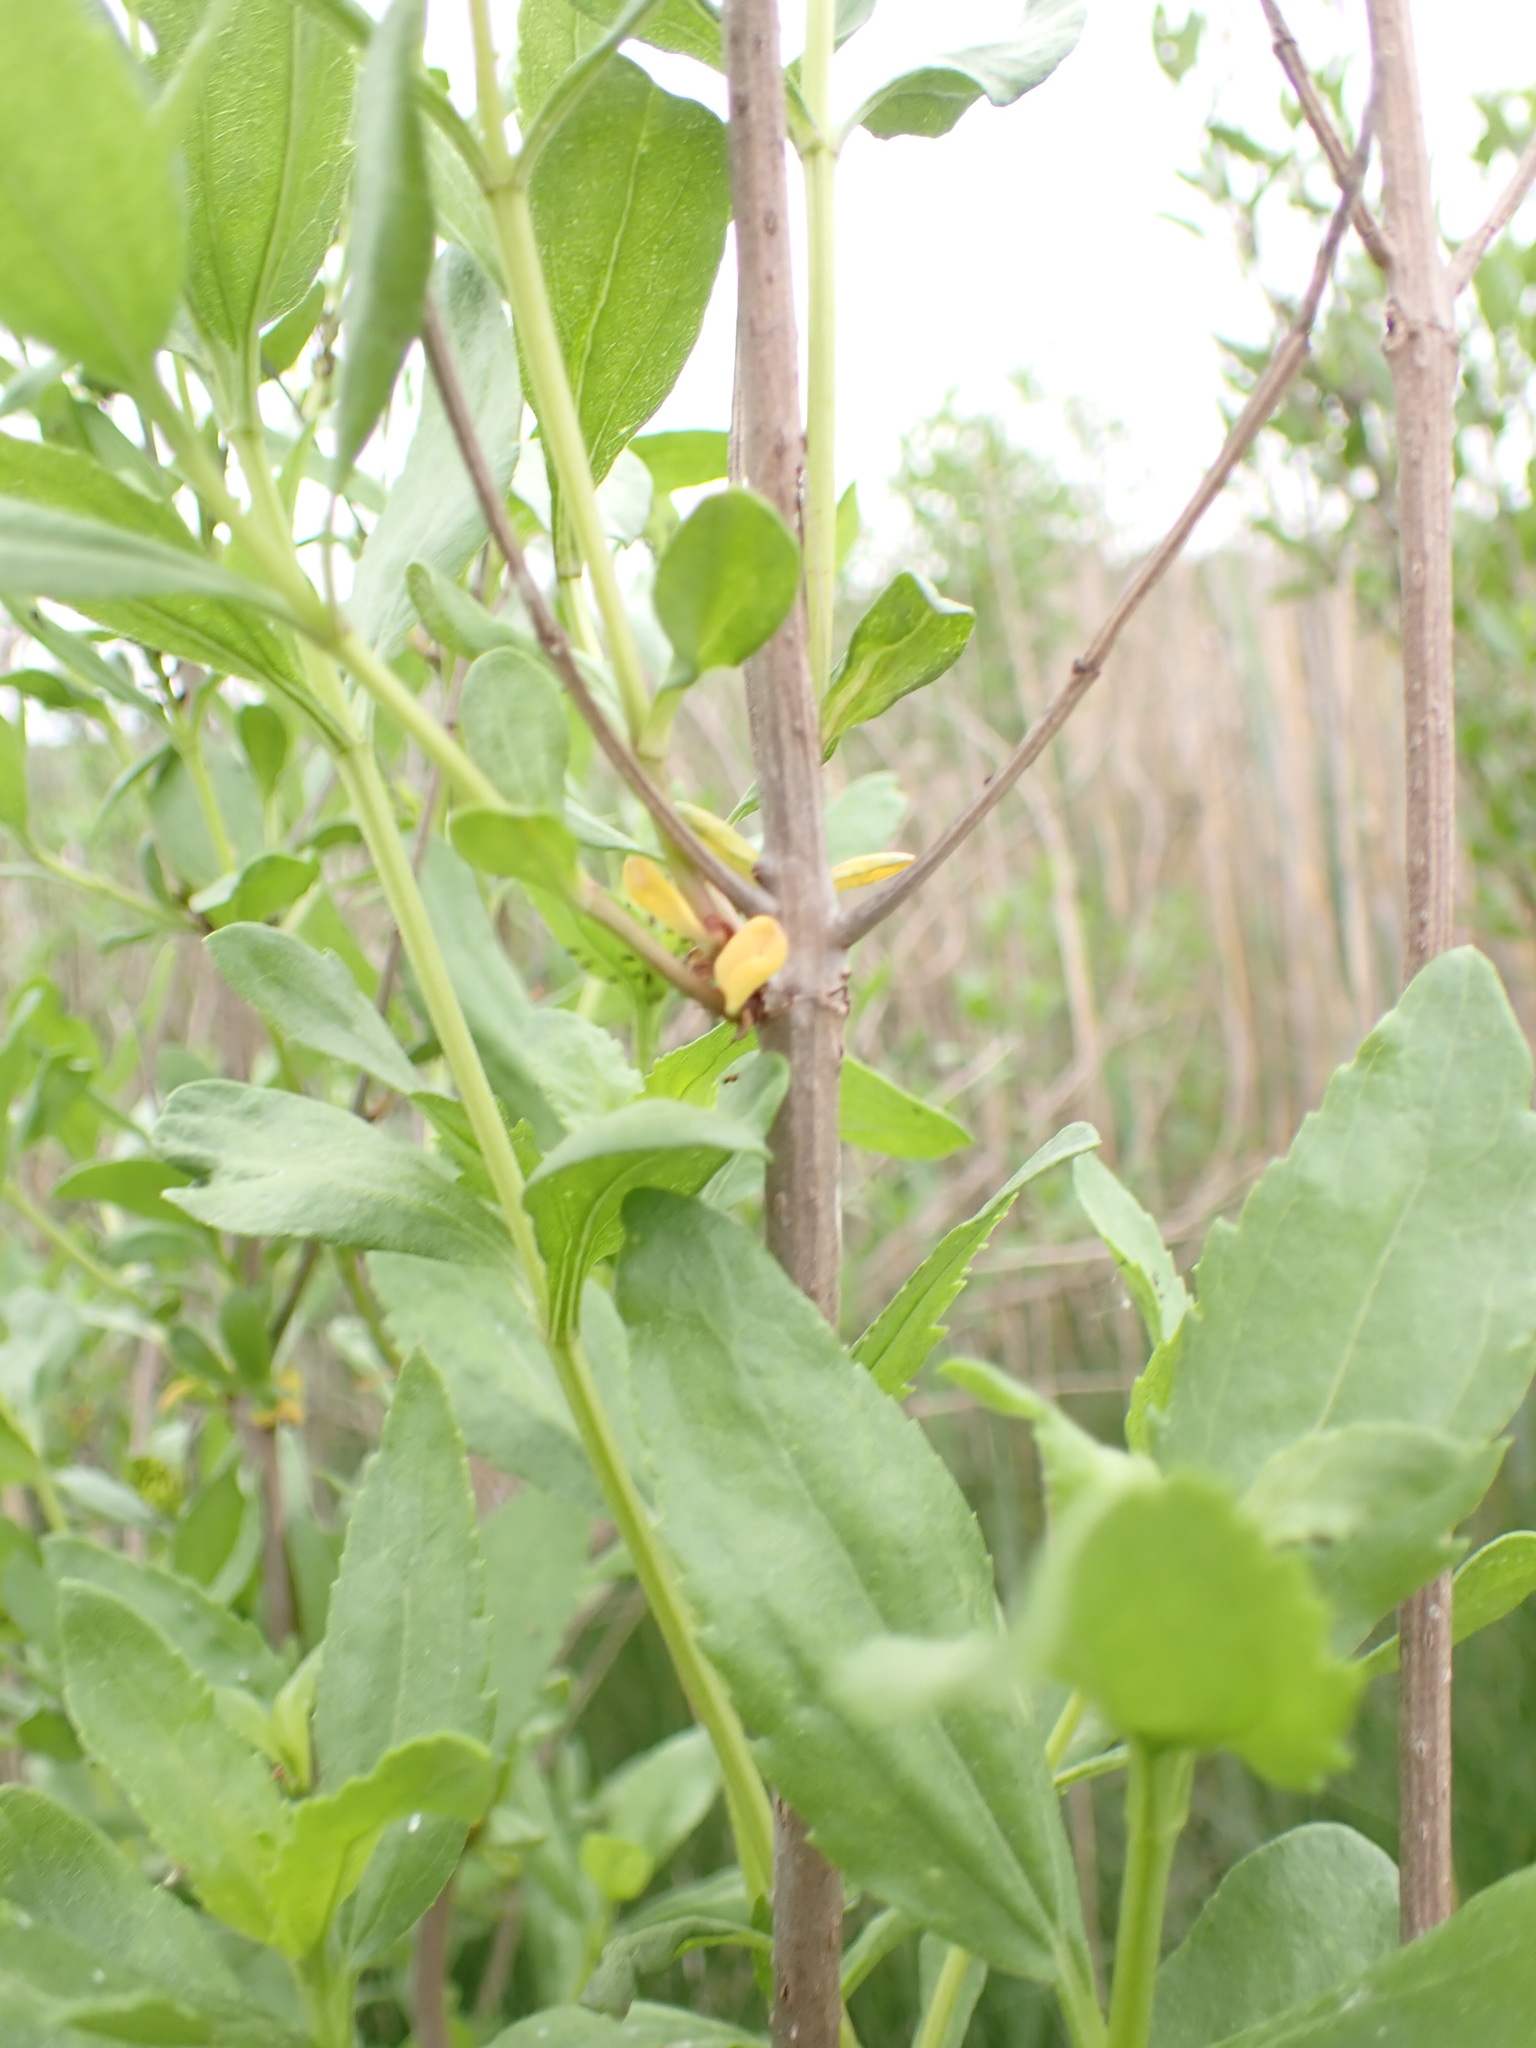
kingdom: Plantae
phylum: Tracheophyta
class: Magnoliopsida
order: Asterales
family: Asteraceae
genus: Iva
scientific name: Iva frutescens
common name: Big-leaved marsh-elder
